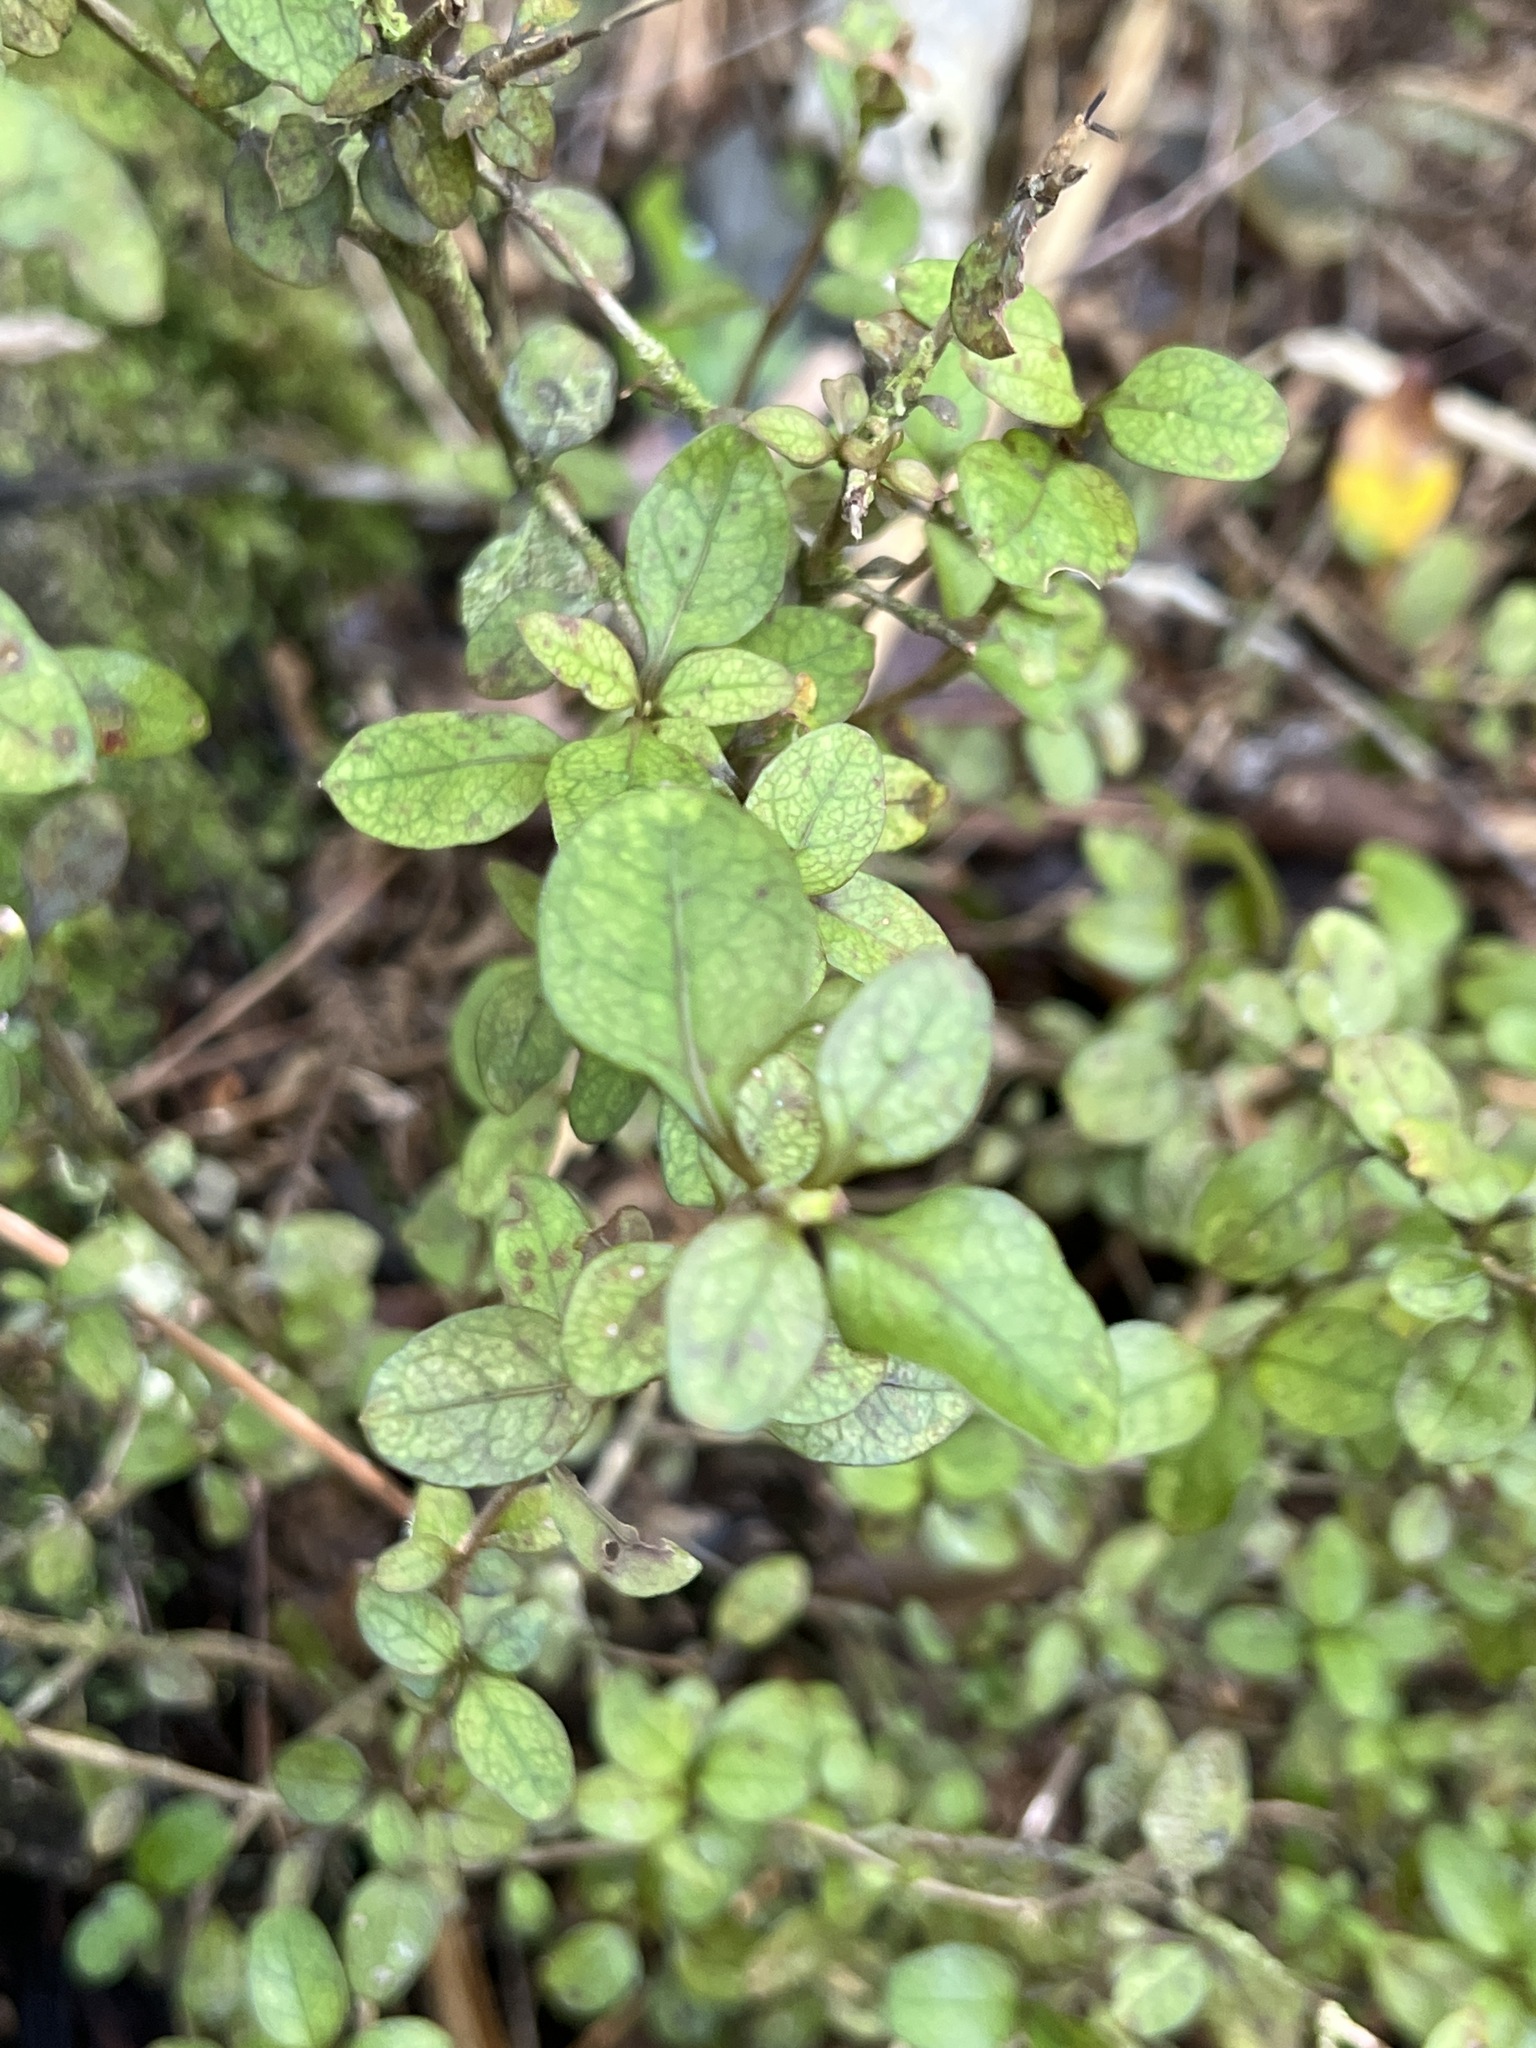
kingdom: Plantae
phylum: Tracheophyta
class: Magnoliopsida
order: Gentianales
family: Rubiaceae
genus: Coprosma
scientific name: Coprosma colensoi
